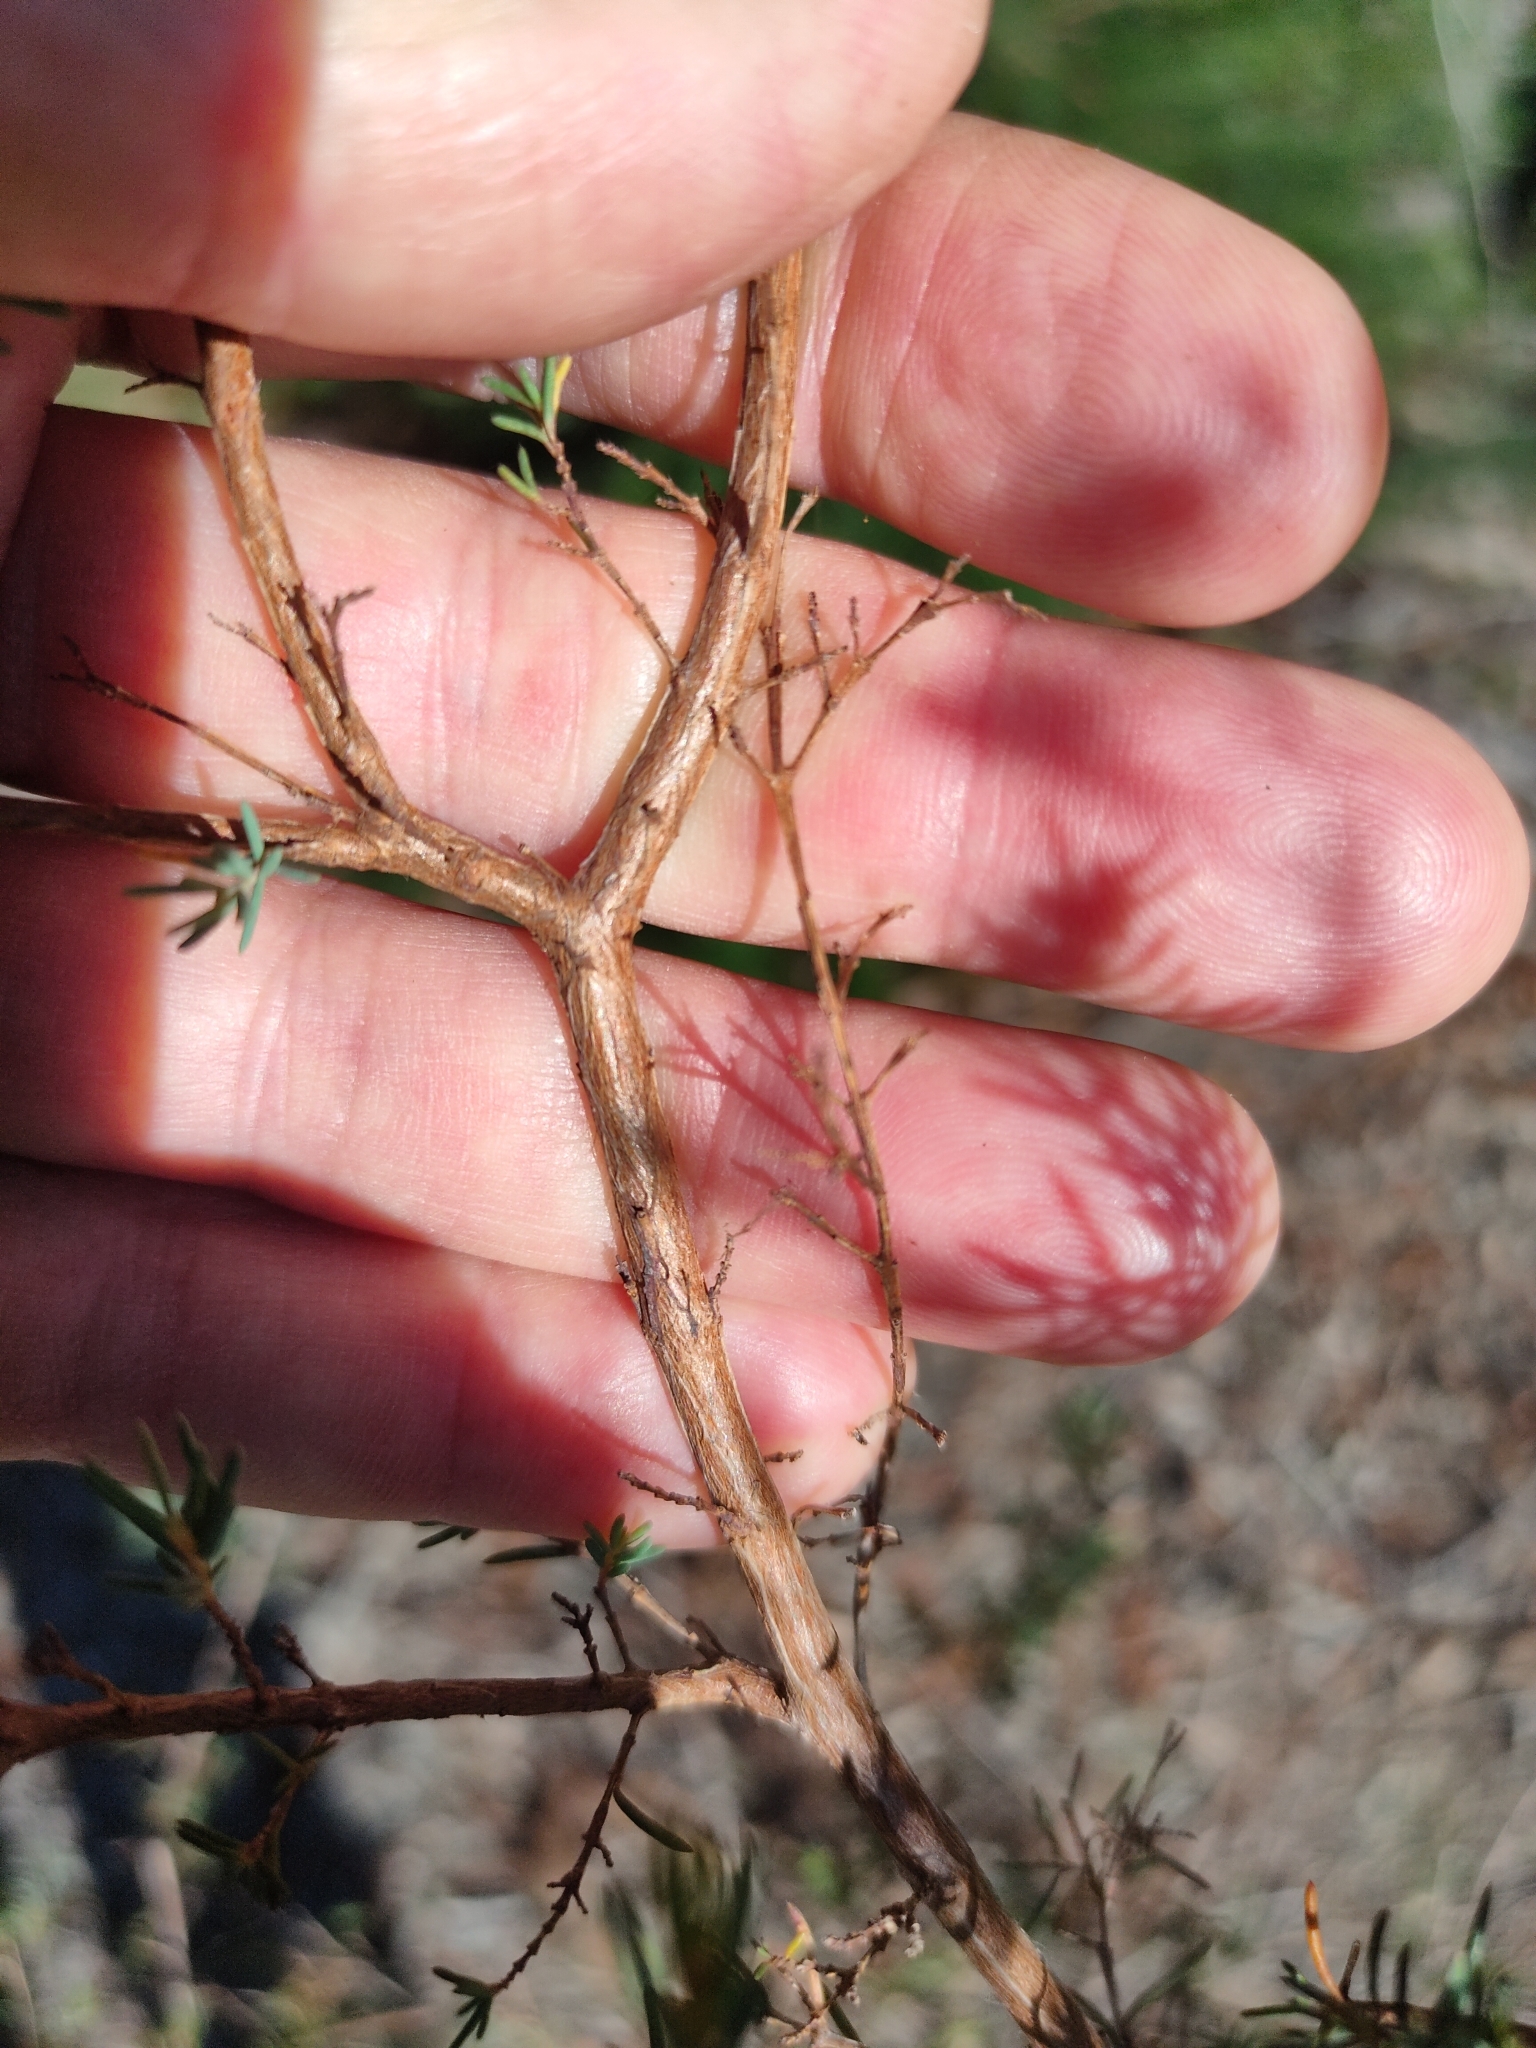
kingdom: Plantae
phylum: Tracheophyta
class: Magnoliopsida
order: Myrtales
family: Myrtaceae
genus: Homoranthus
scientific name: Homoranthus virgatus
